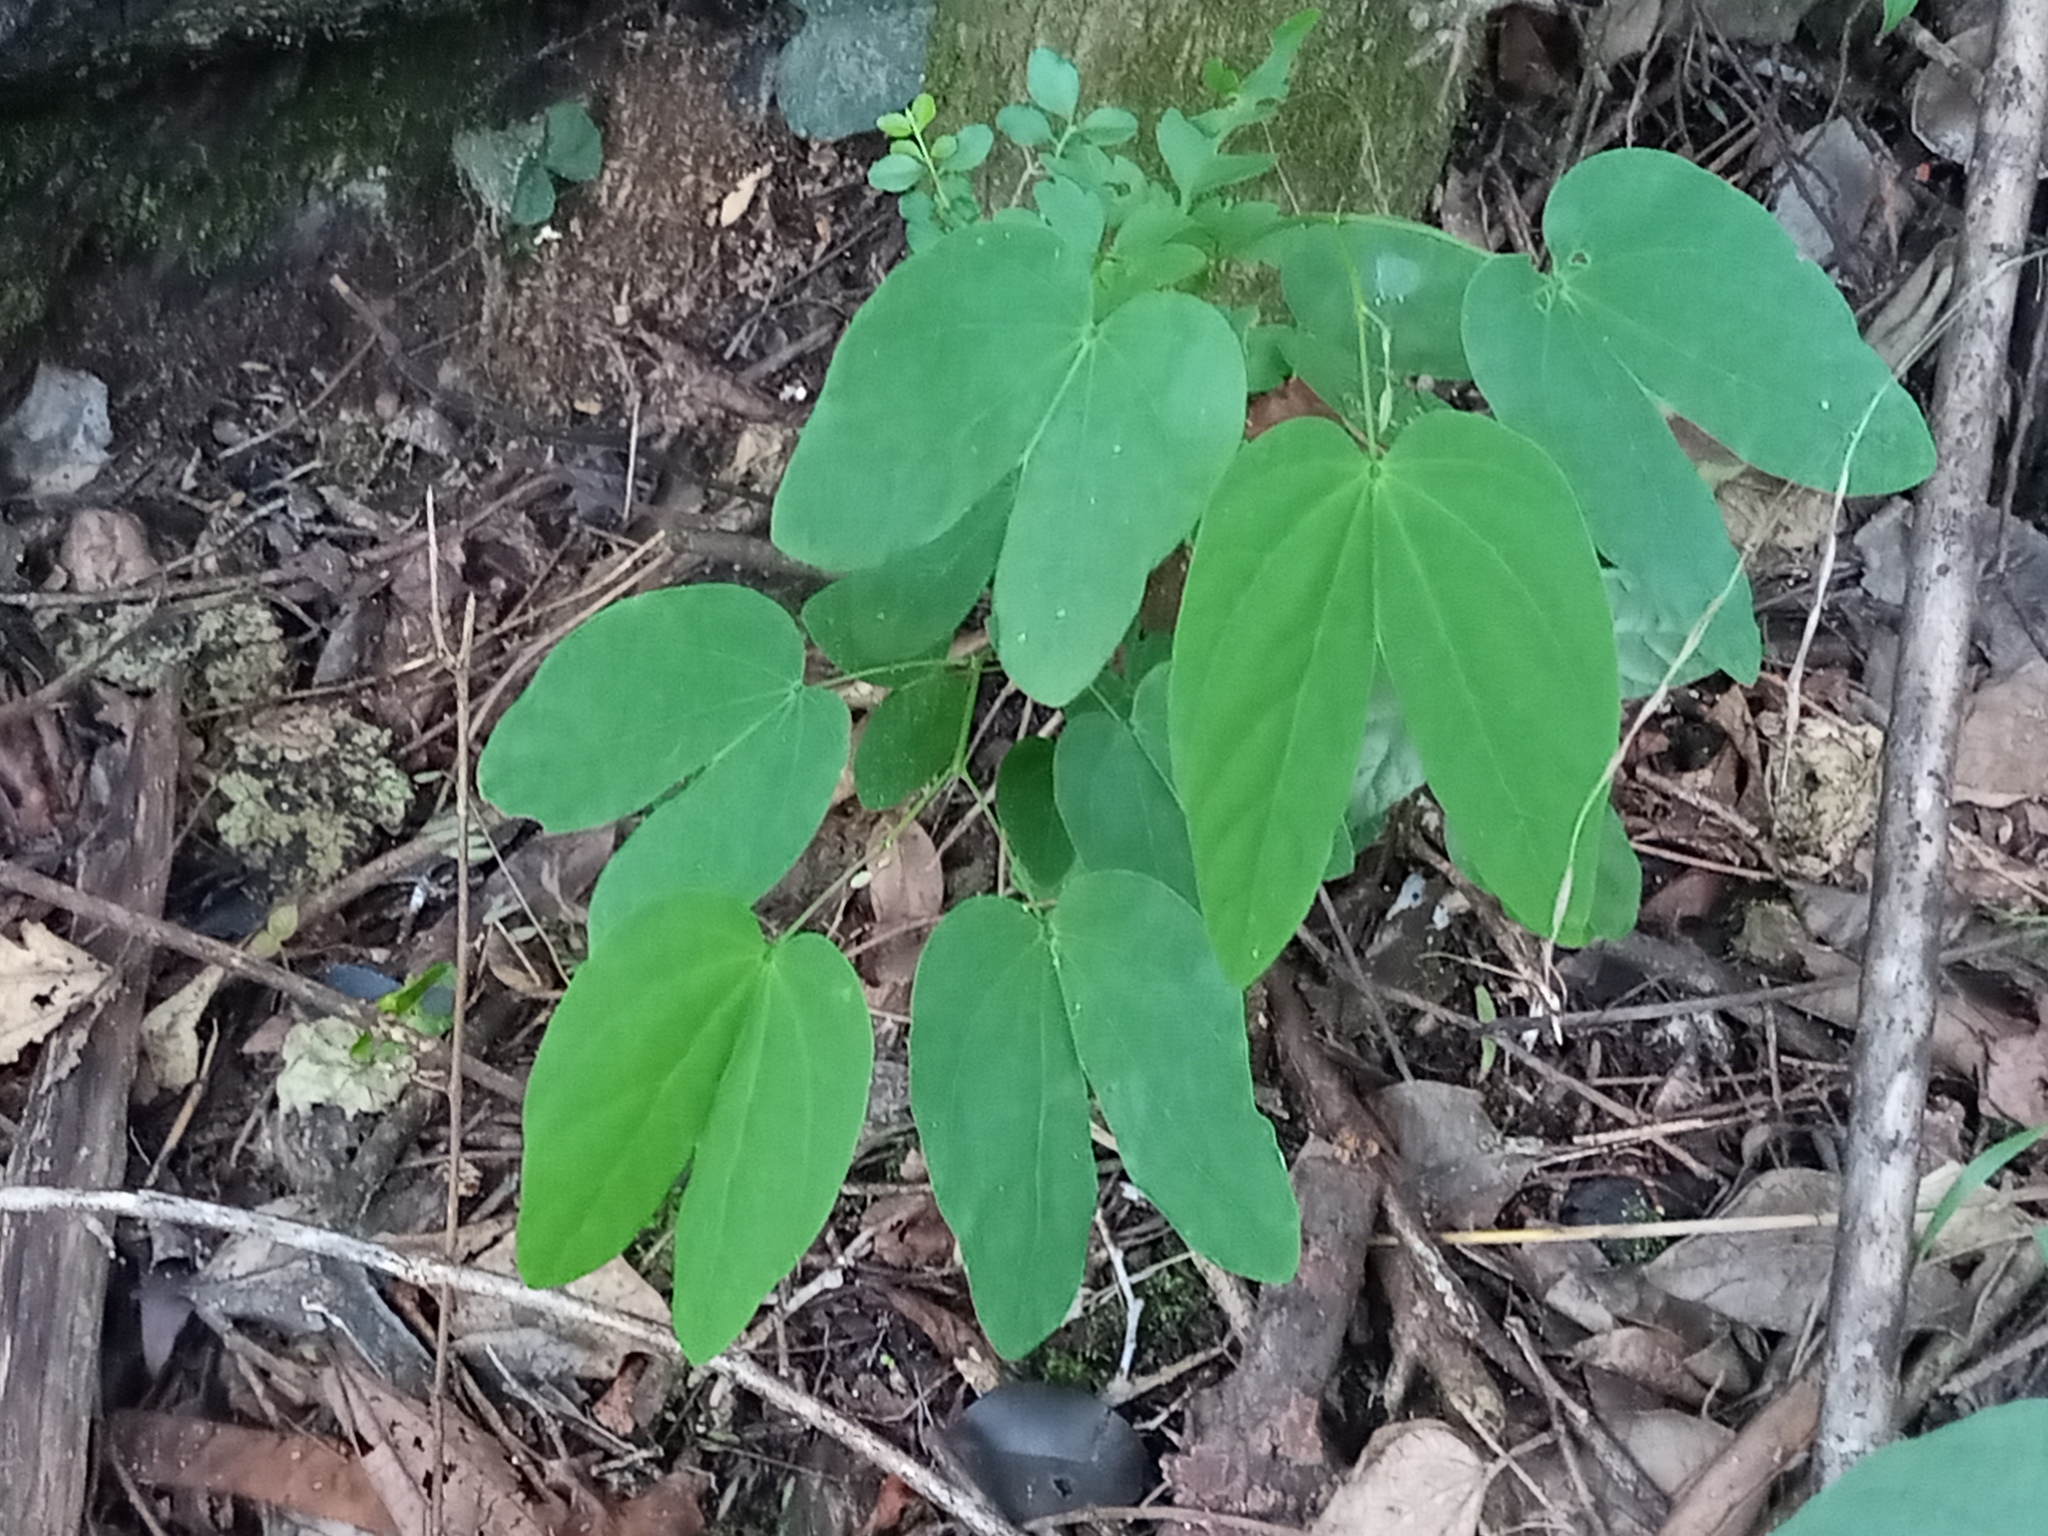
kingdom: Plantae
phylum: Tracheophyta
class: Magnoliopsida
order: Fabales
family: Fabaceae
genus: Bauhinia
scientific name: Bauhinia forficata
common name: Orchid tree
